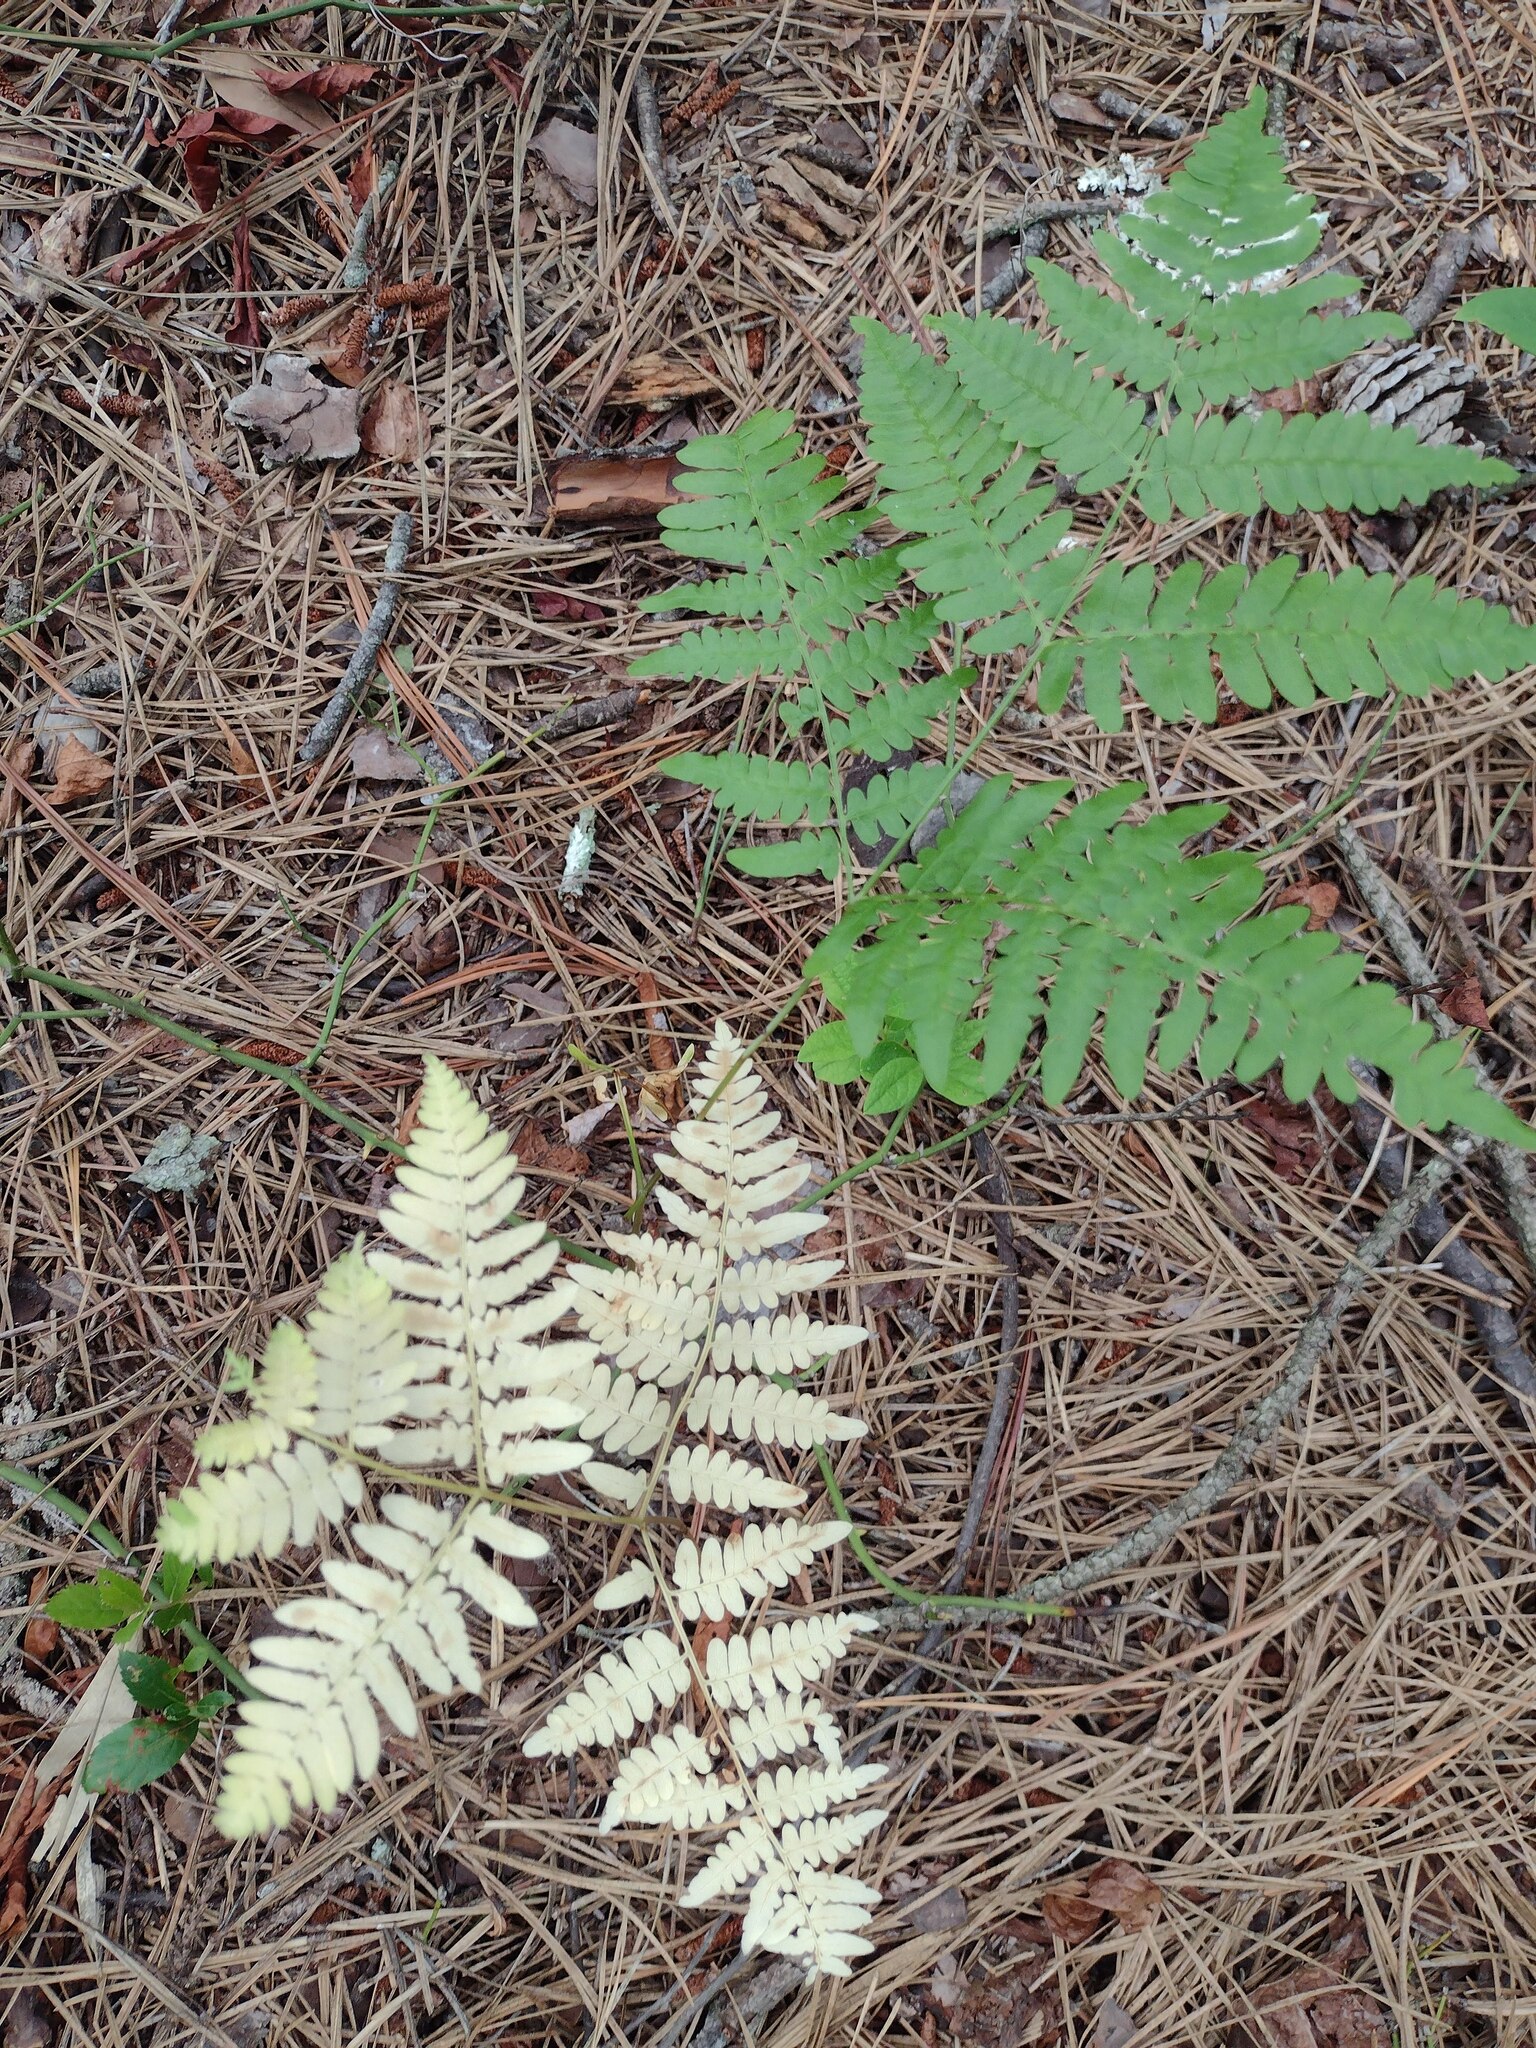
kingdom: Plantae
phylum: Tracheophyta
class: Polypodiopsida
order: Polypodiales
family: Dennstaedtiaceae
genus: Pteridium
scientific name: Pteridium aquilinum
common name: Bracken
